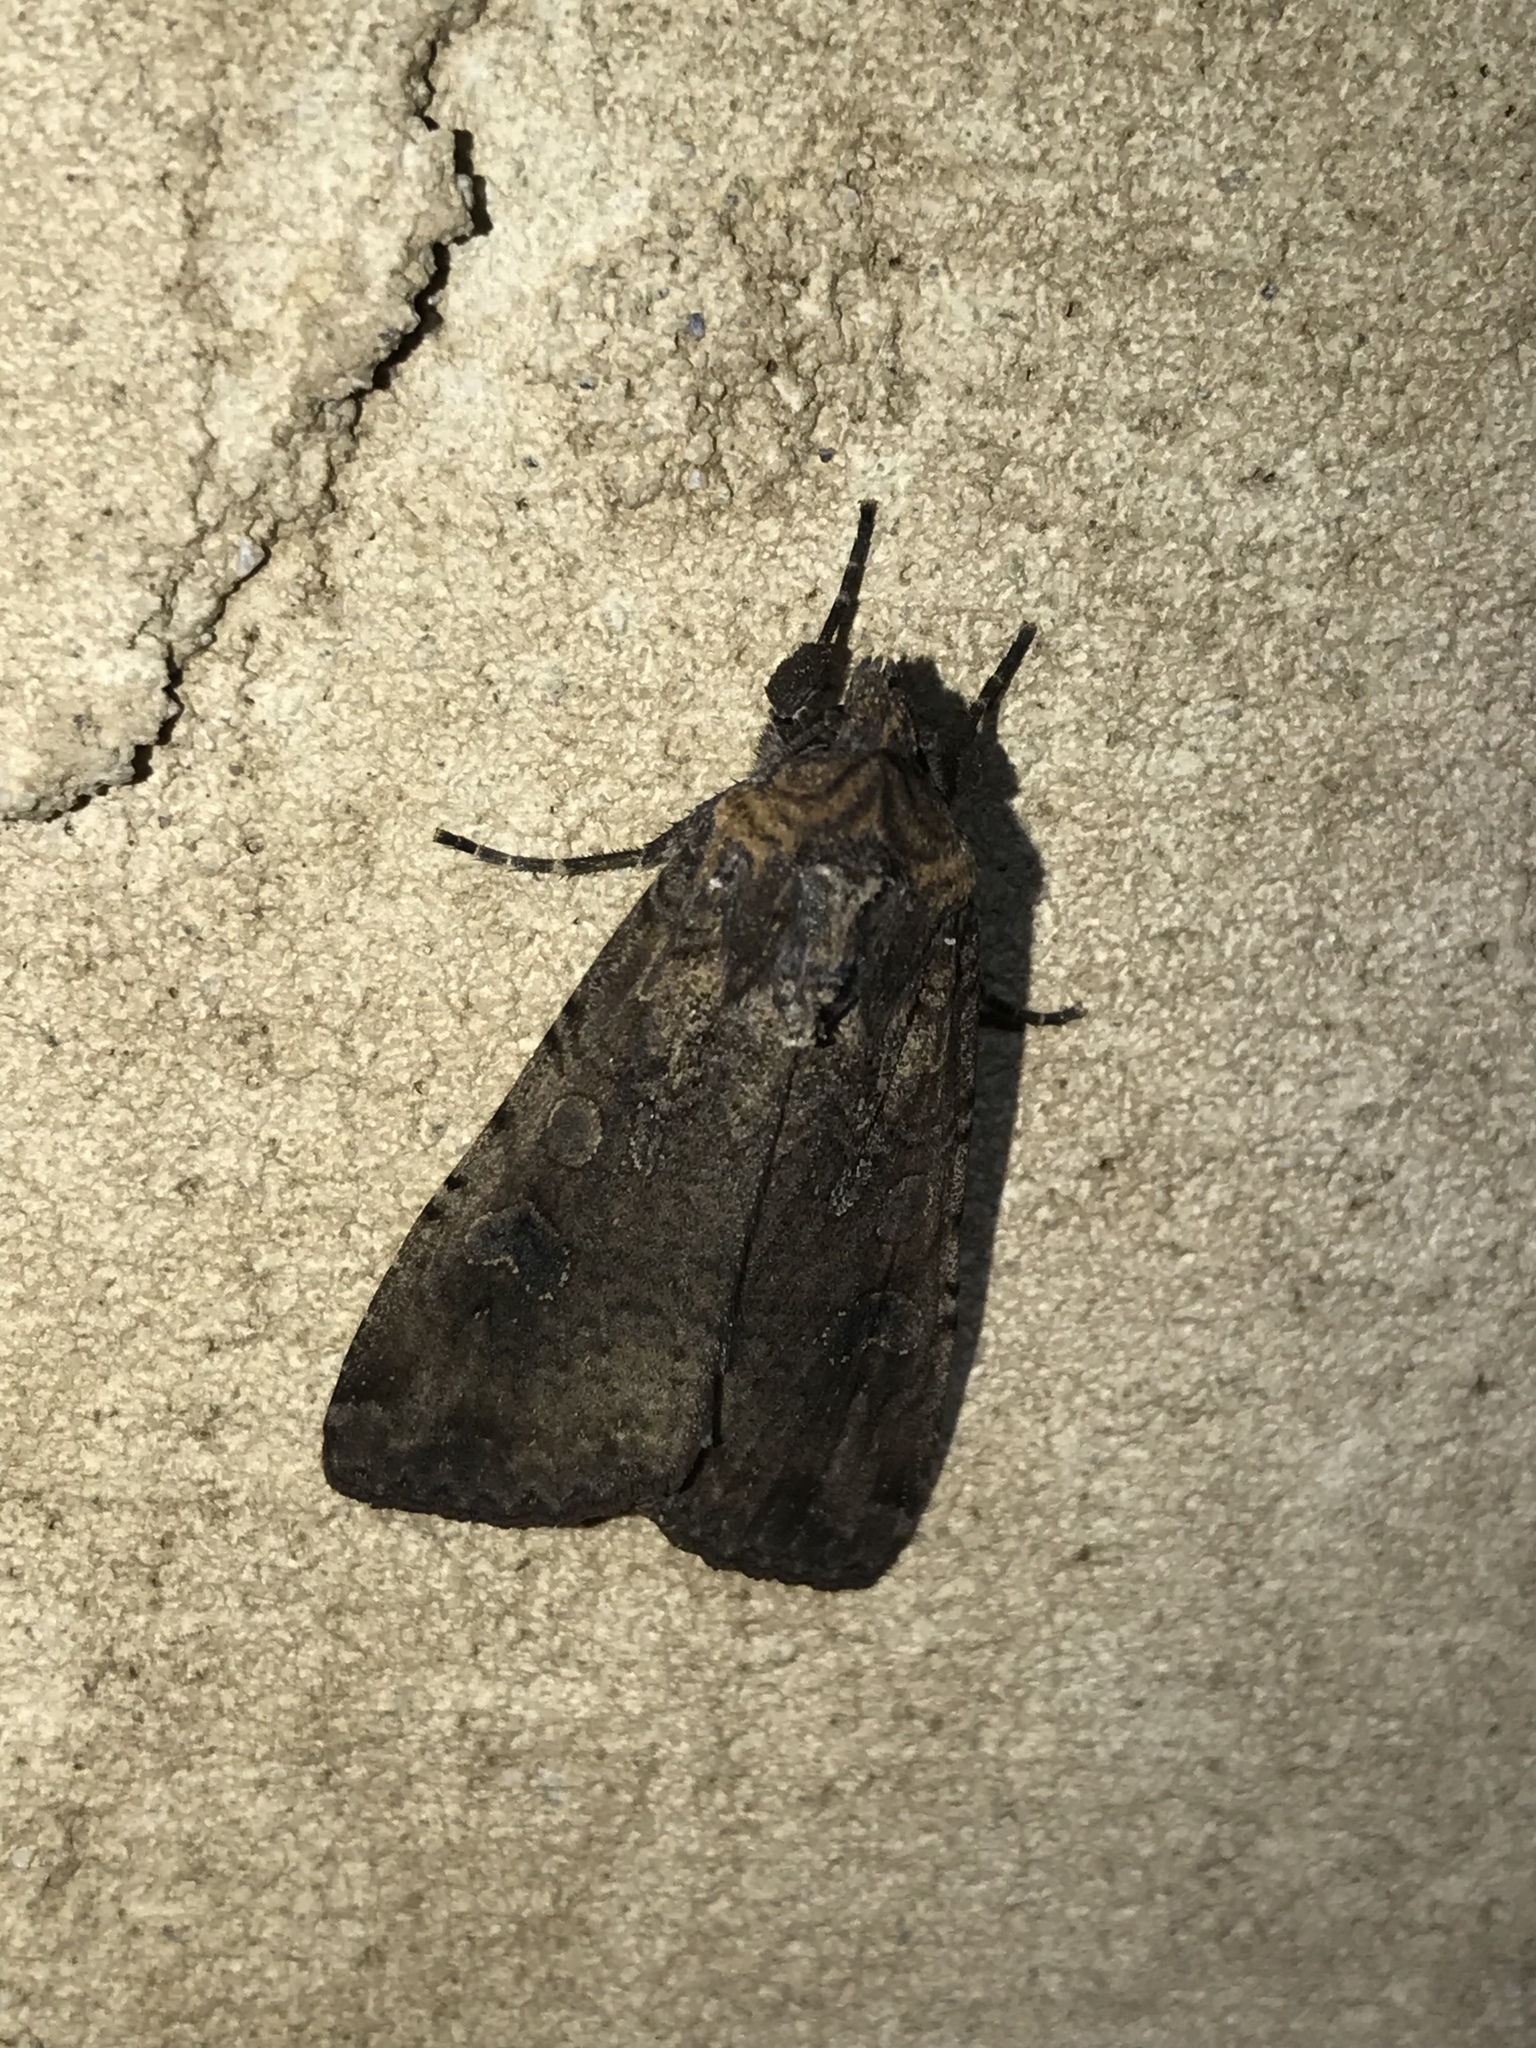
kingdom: Animalia
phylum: Arthropoda
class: Insecta
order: Lepidoptera
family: Noctuidae
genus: Peridroma
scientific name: Peridroma saucia
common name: Pearly underwing
